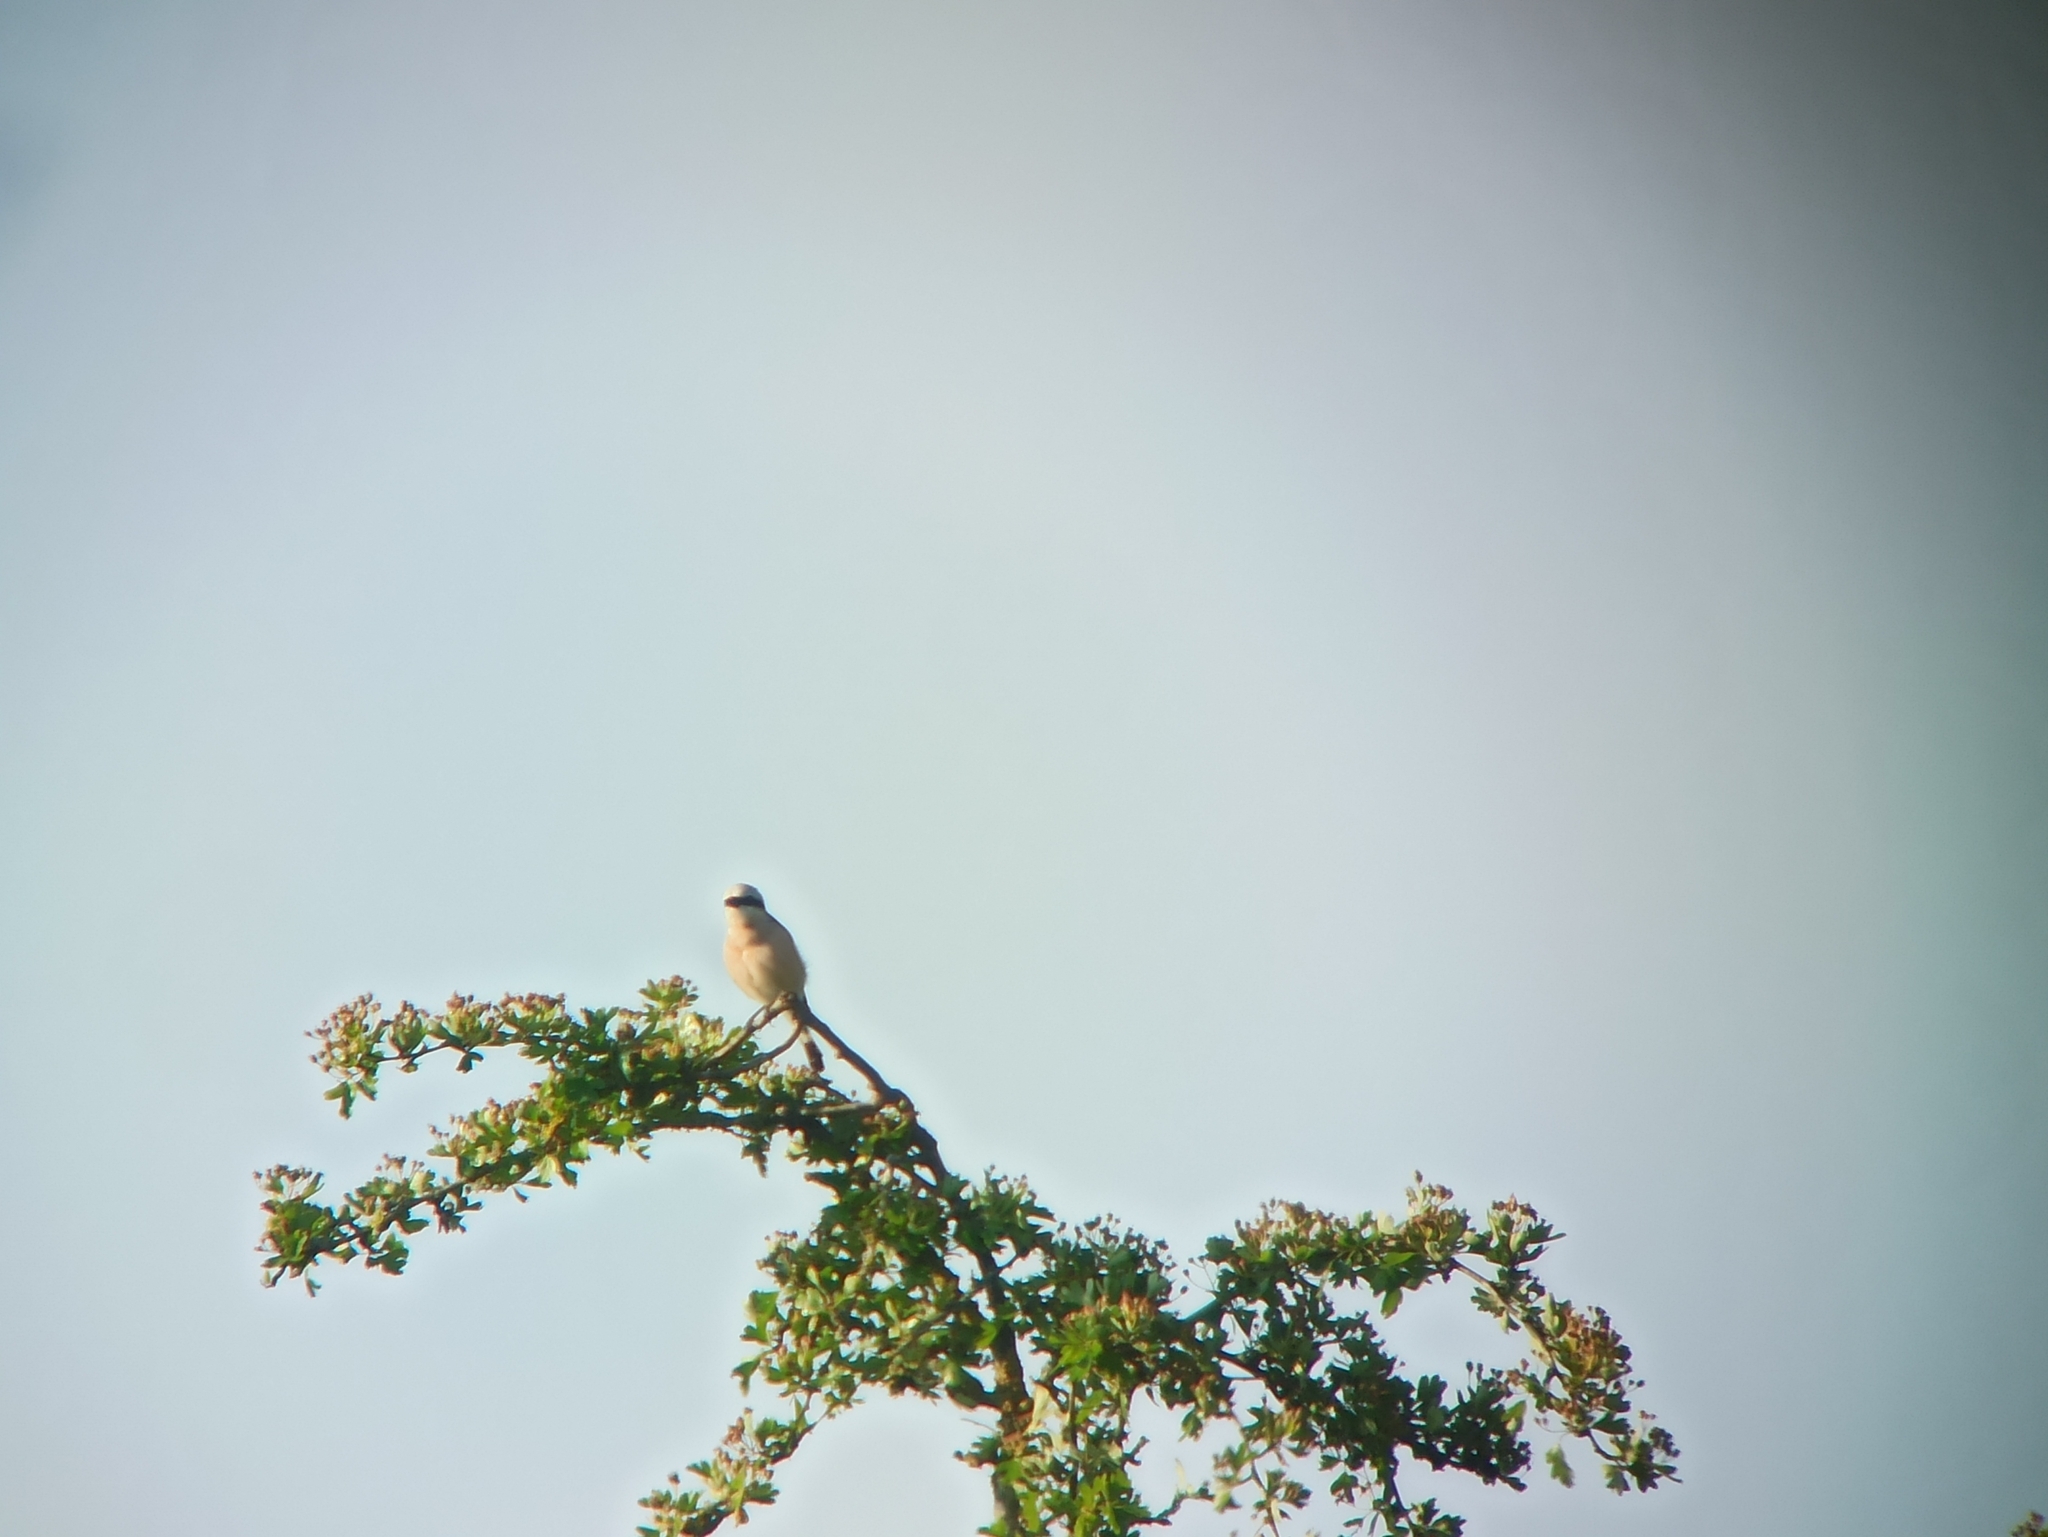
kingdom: Animalia
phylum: Chordata
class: Aves
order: Passeriformes
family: Laniidae
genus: Lanius
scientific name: Lanius collurio
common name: Red-backed shrike
